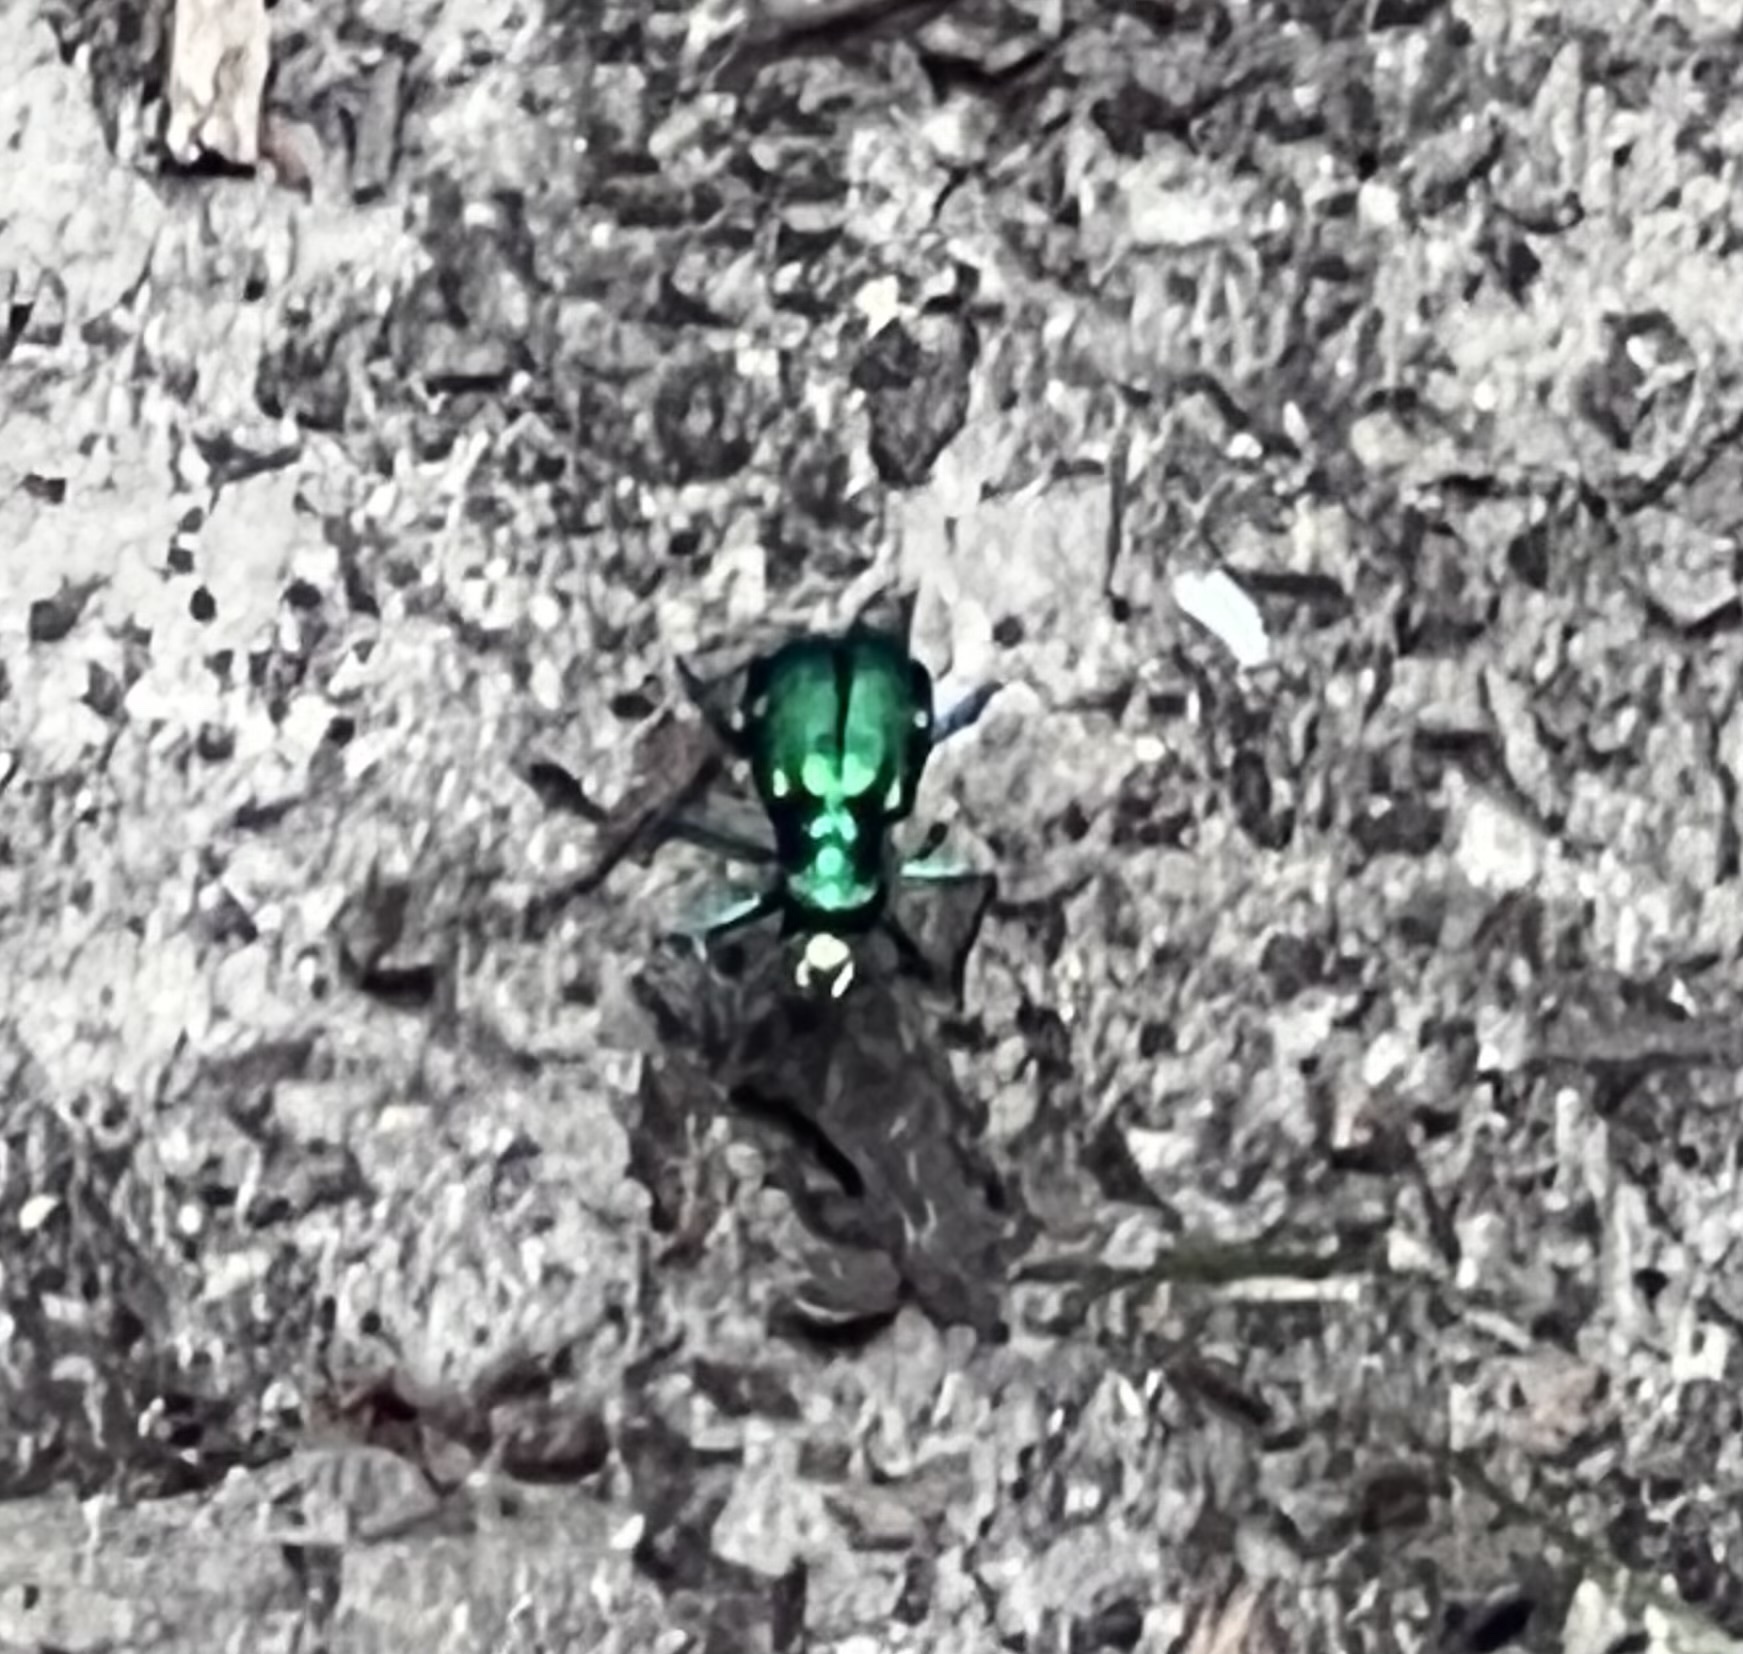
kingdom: Animalia
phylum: Arthropoda
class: Insecta
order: Coleoptera
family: Carabidae
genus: Cicindela
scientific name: Cicindela sexguttata
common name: Six-spotted tiger beetle
